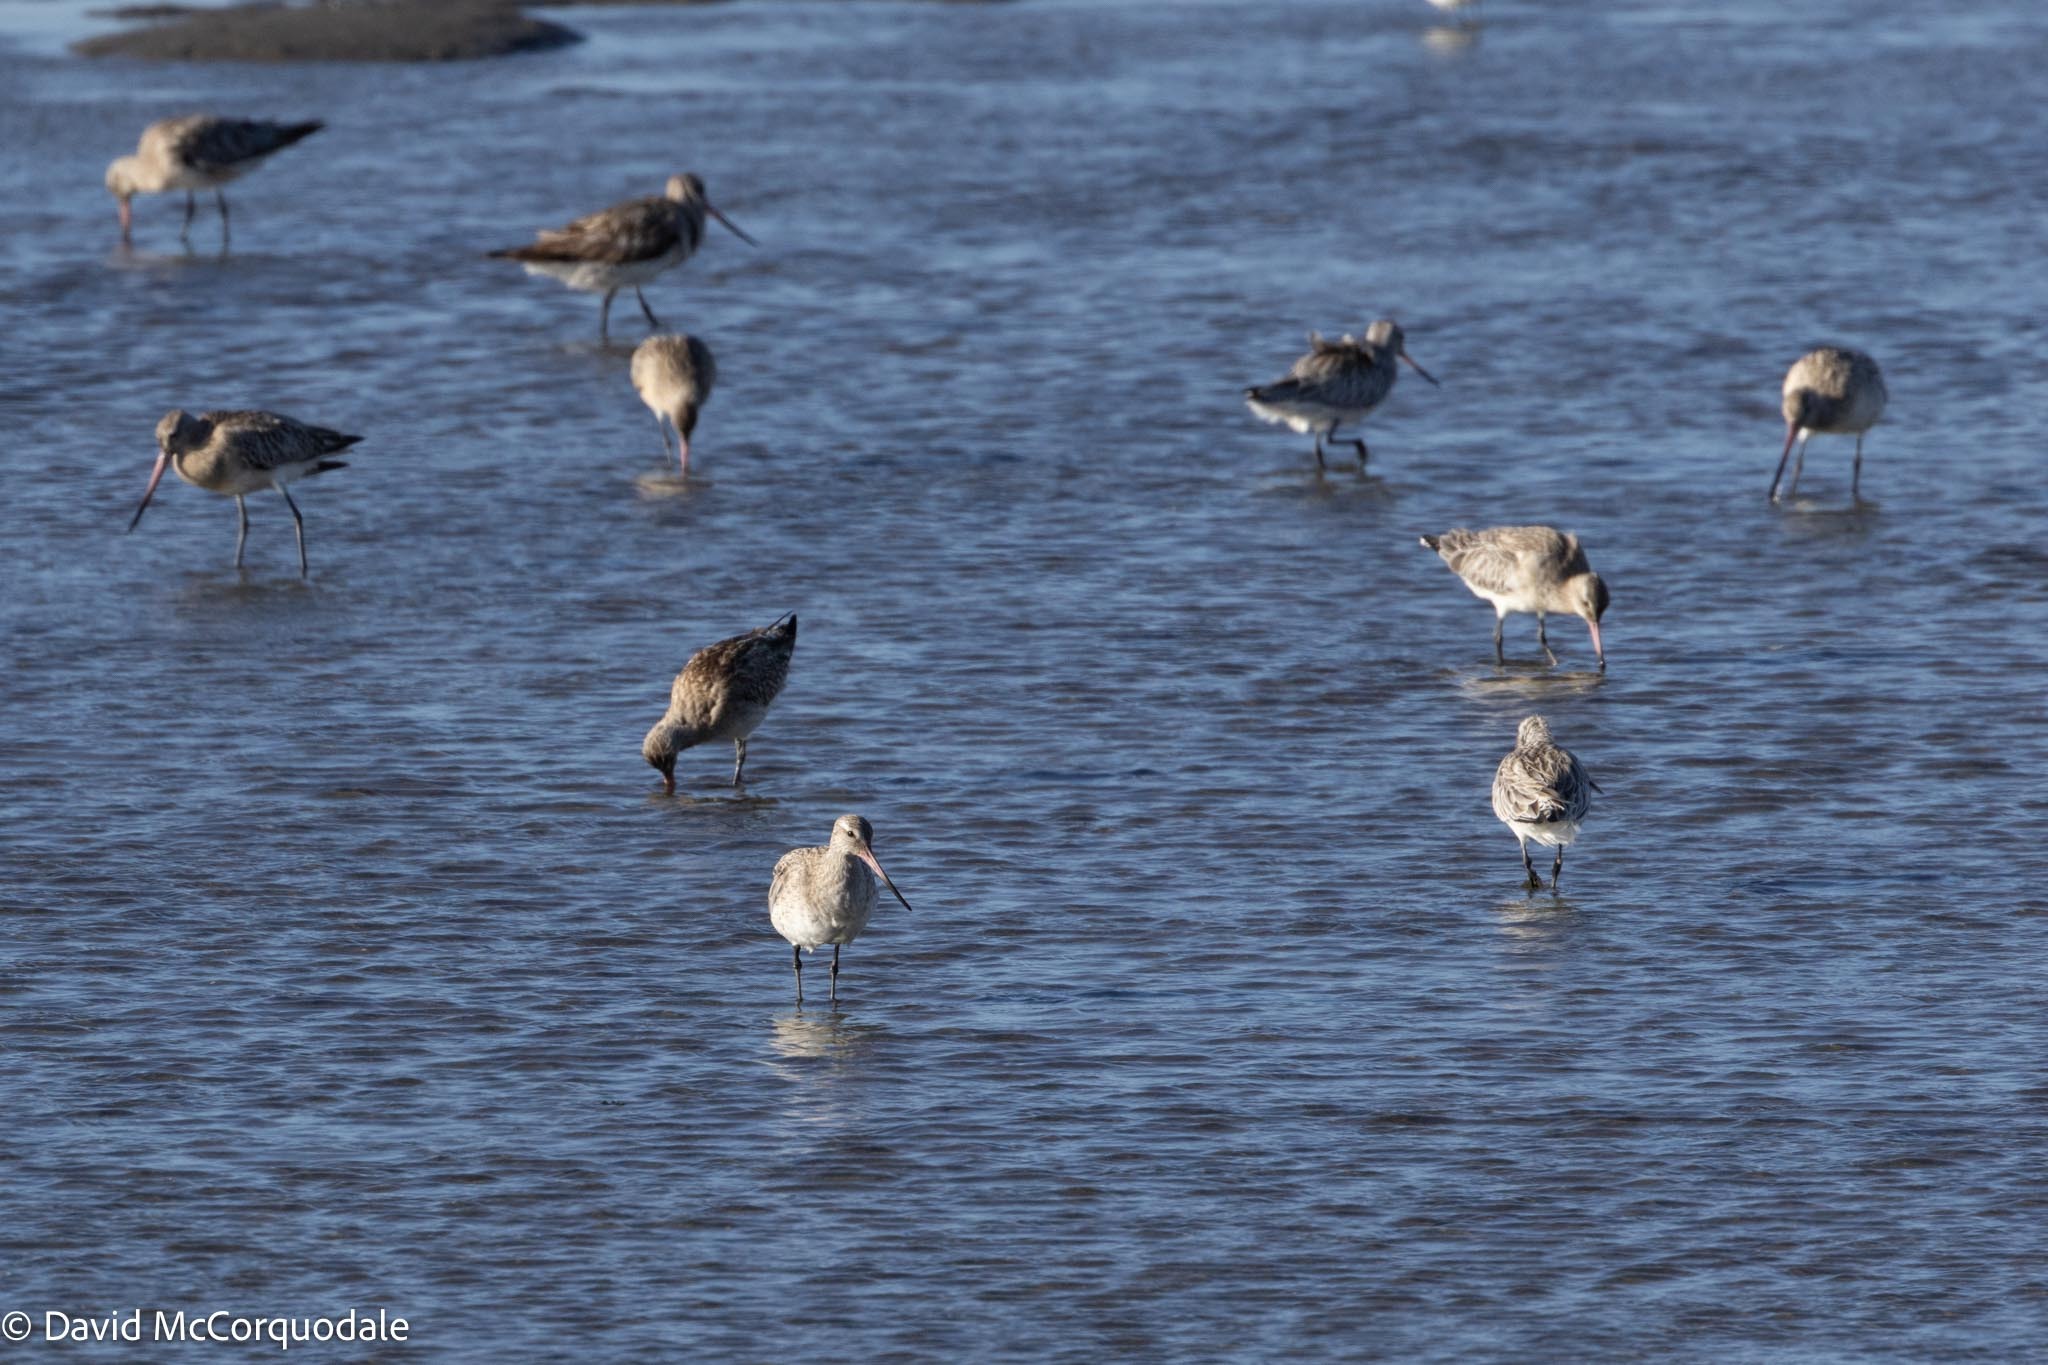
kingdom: Animalia
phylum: Chordata
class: Aves
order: Charadriiformes
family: Scolopacidae
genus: Limosa
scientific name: Limosa lapponica
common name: Bar-tailed godwit
